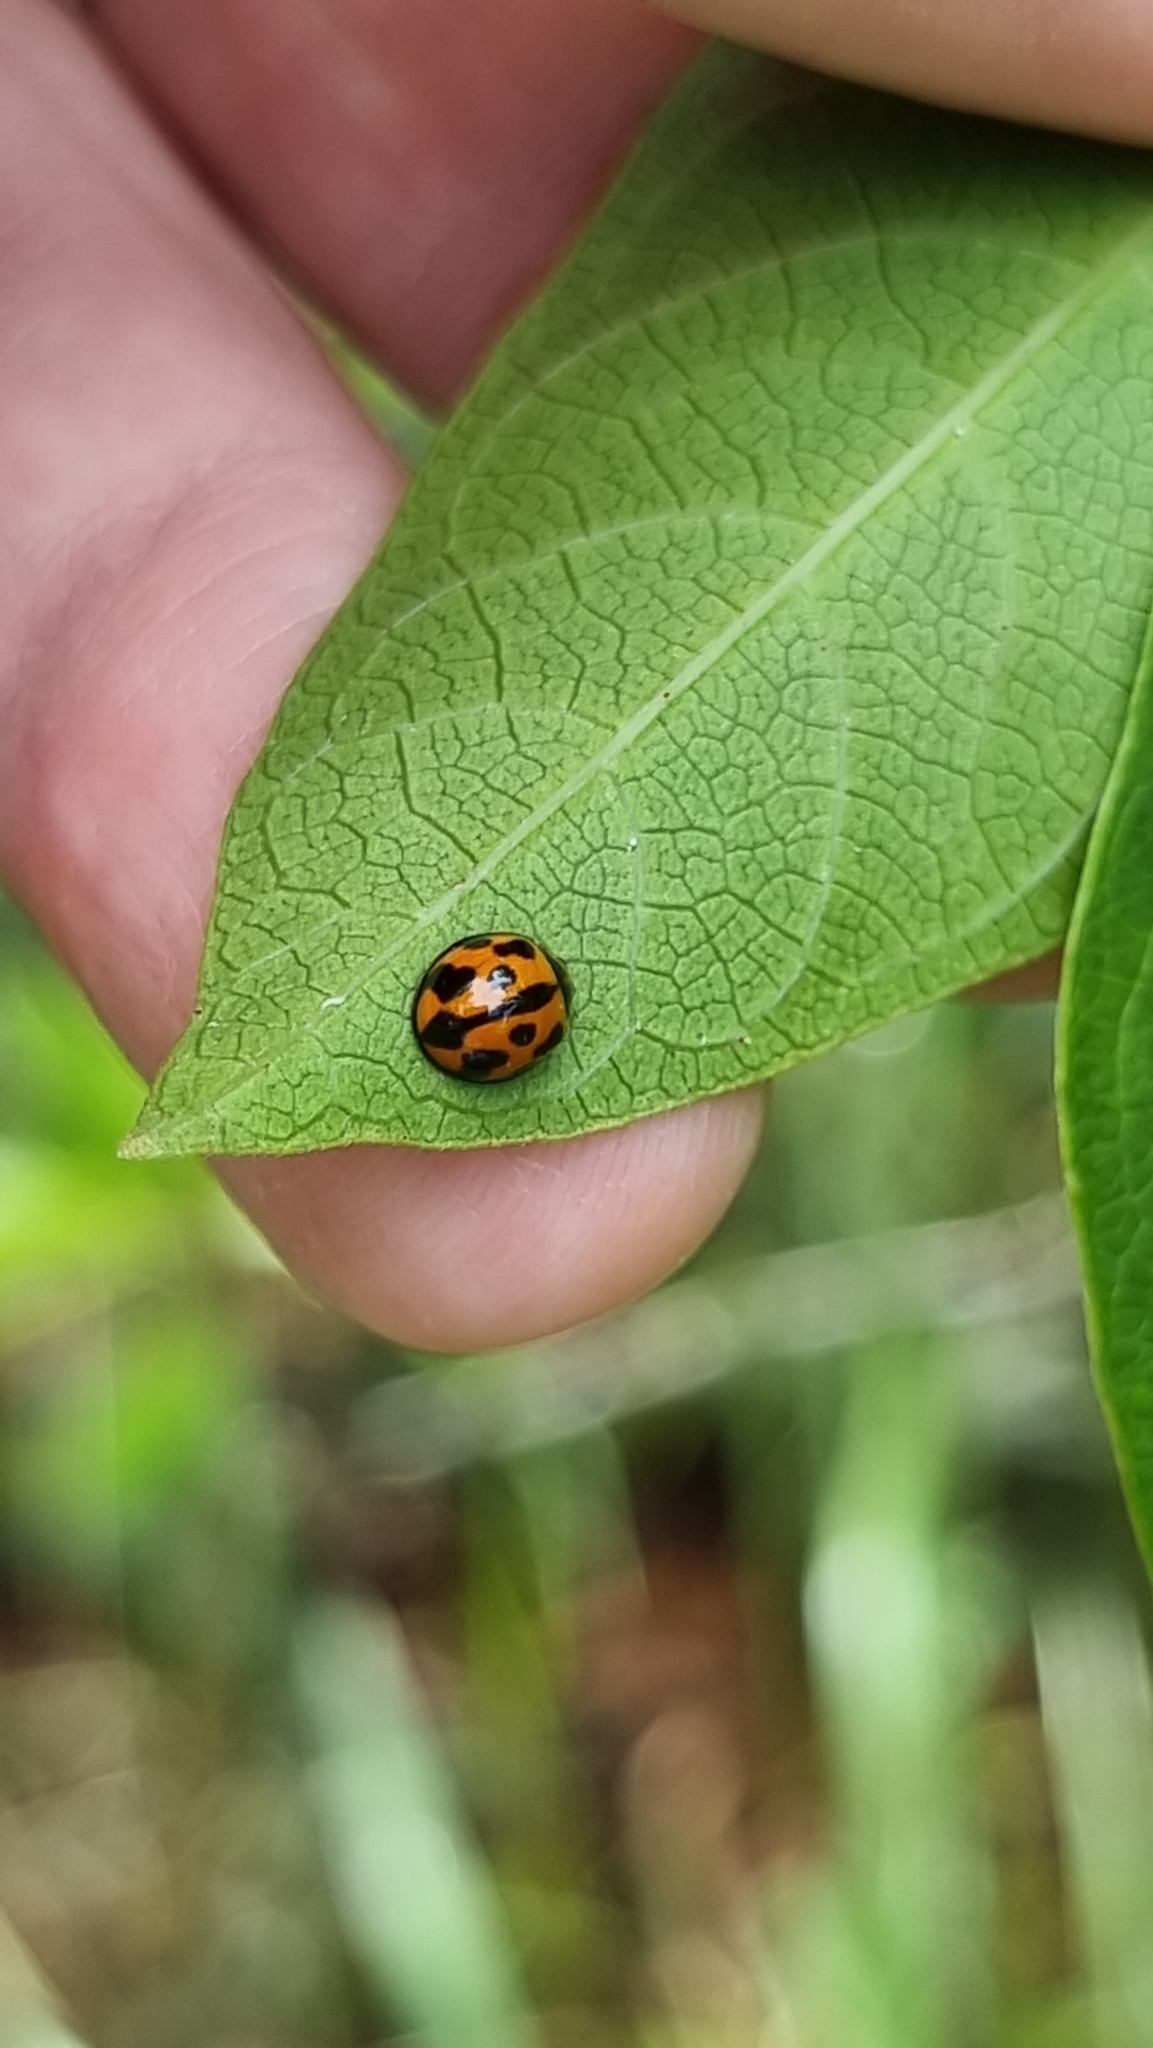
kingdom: Animalia
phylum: Arthropoda
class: Insecta
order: Coleoptera
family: Coccinellidae
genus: Coelophora
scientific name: Coelophora inaequalis
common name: Common australian lady beetle
